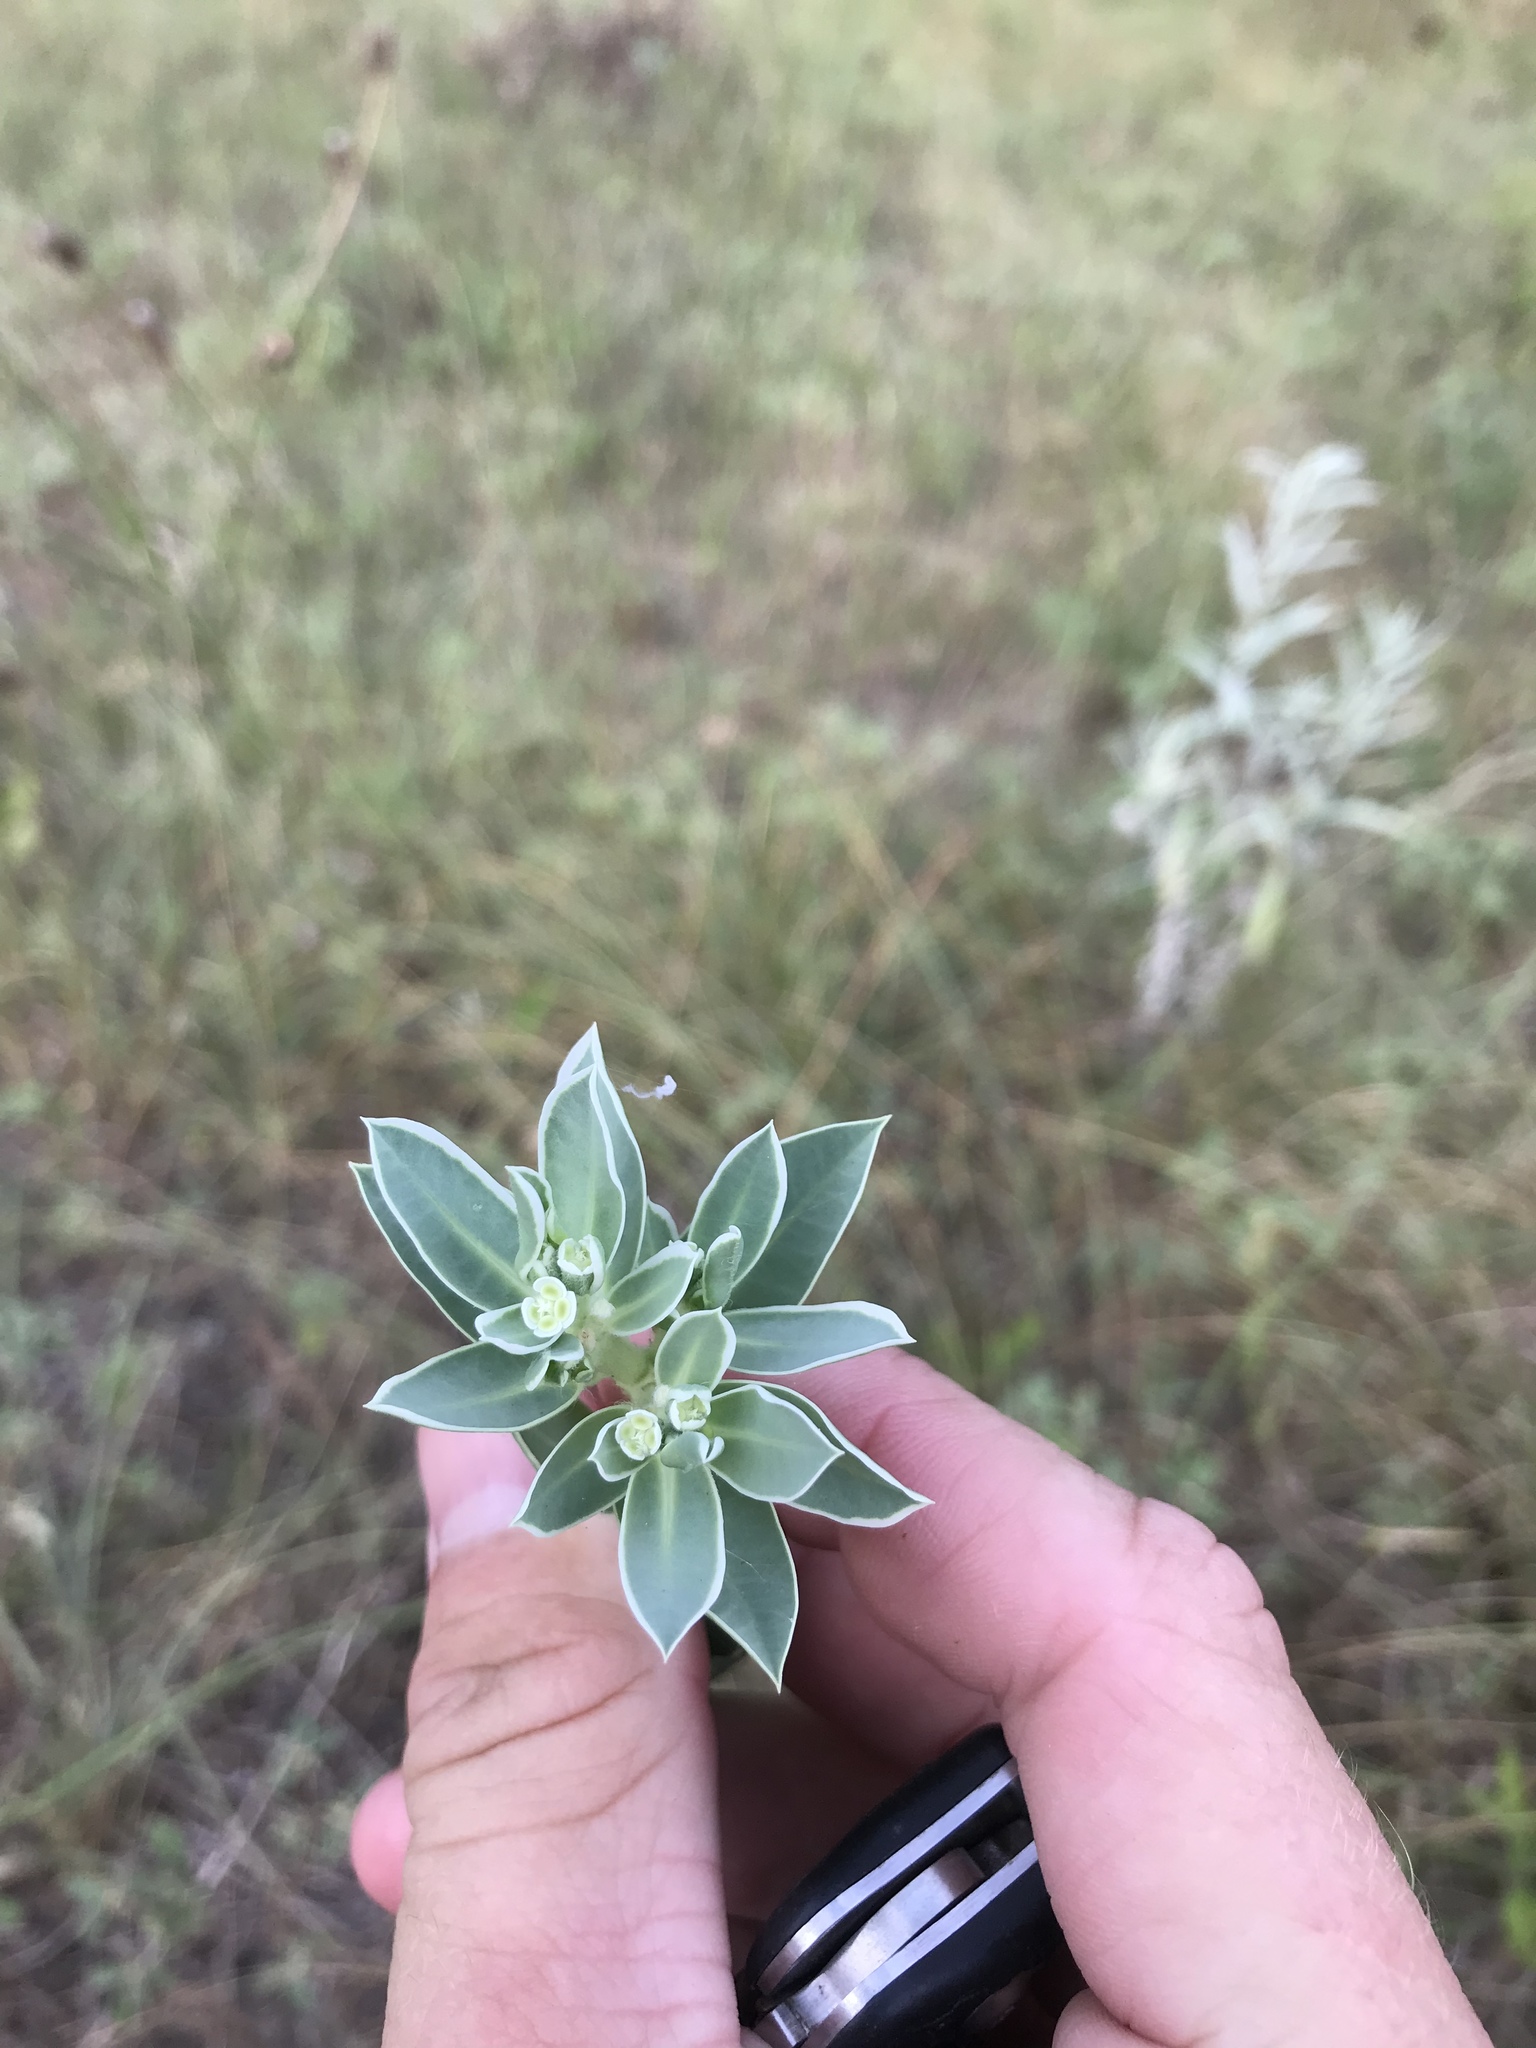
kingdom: Plantae
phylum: Tracheophyta
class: Magnoliopsida
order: Malpighiales
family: Euphorbiaceae
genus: Euphorbia
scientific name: Euphorbia marginata
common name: Ghostweed
